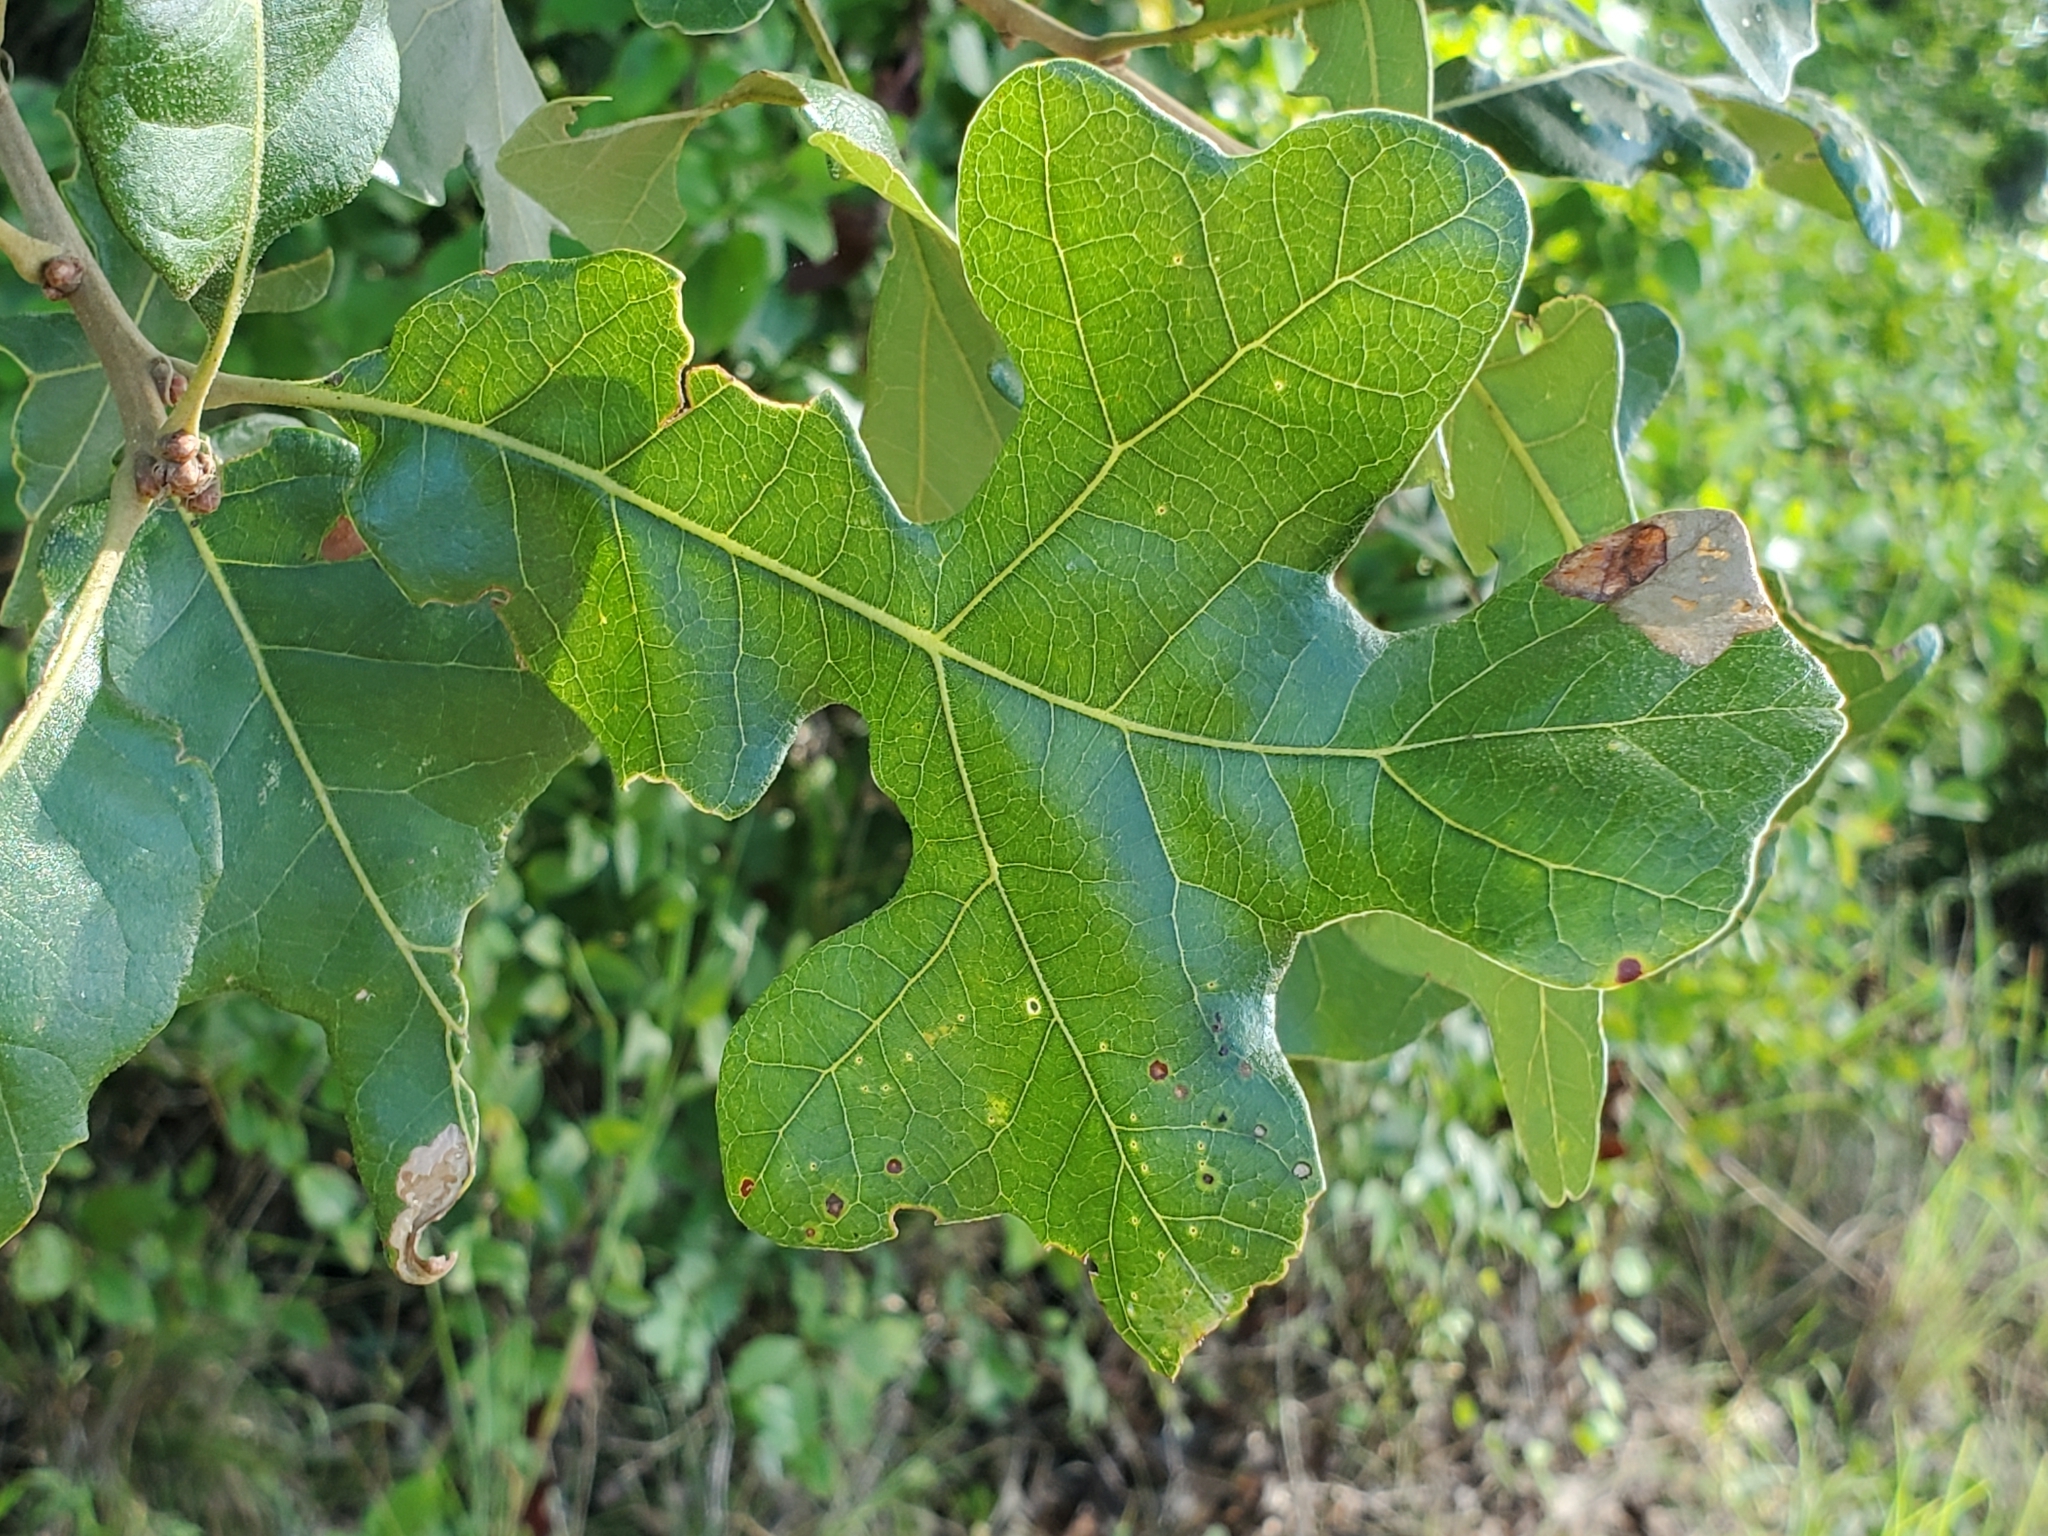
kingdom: Plantae
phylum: Tracheophyta
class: Magnoliopsida
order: Fagales
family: Fagaceae
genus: Quercus
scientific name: Quercus stellata
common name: Post oak
